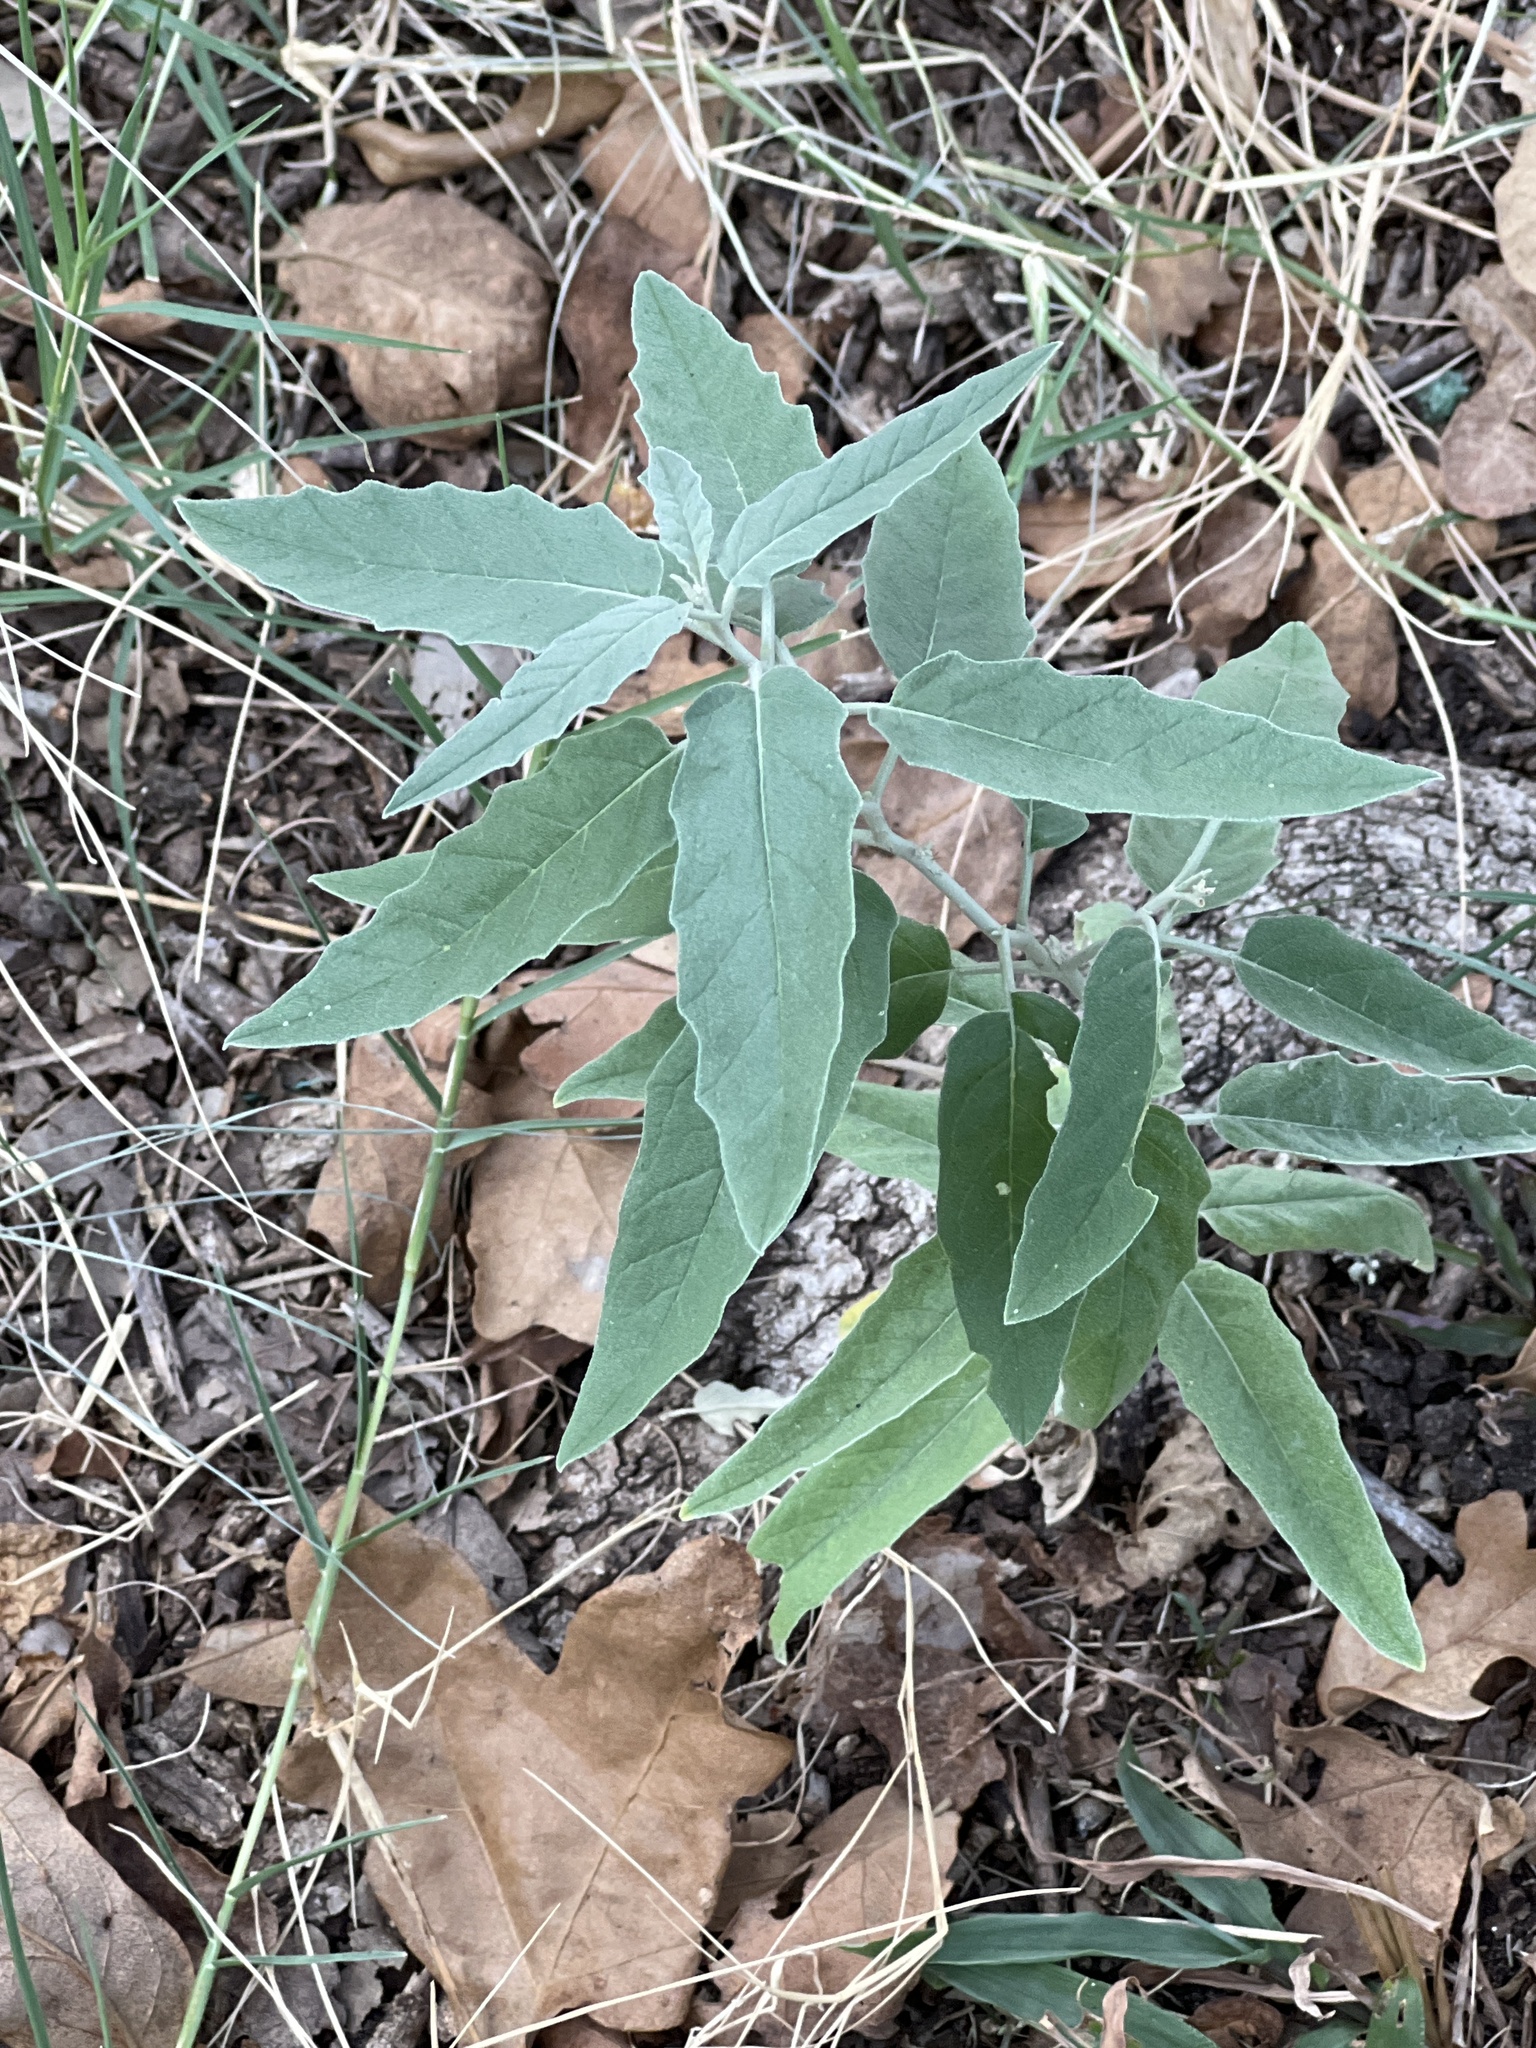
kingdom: Plantae
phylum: Tracheophyta
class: Magnoliopsida
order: Solanales
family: Solanaceae
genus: Solanum
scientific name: Solanum elaeagnifolium
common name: Silverleaf nightshade
